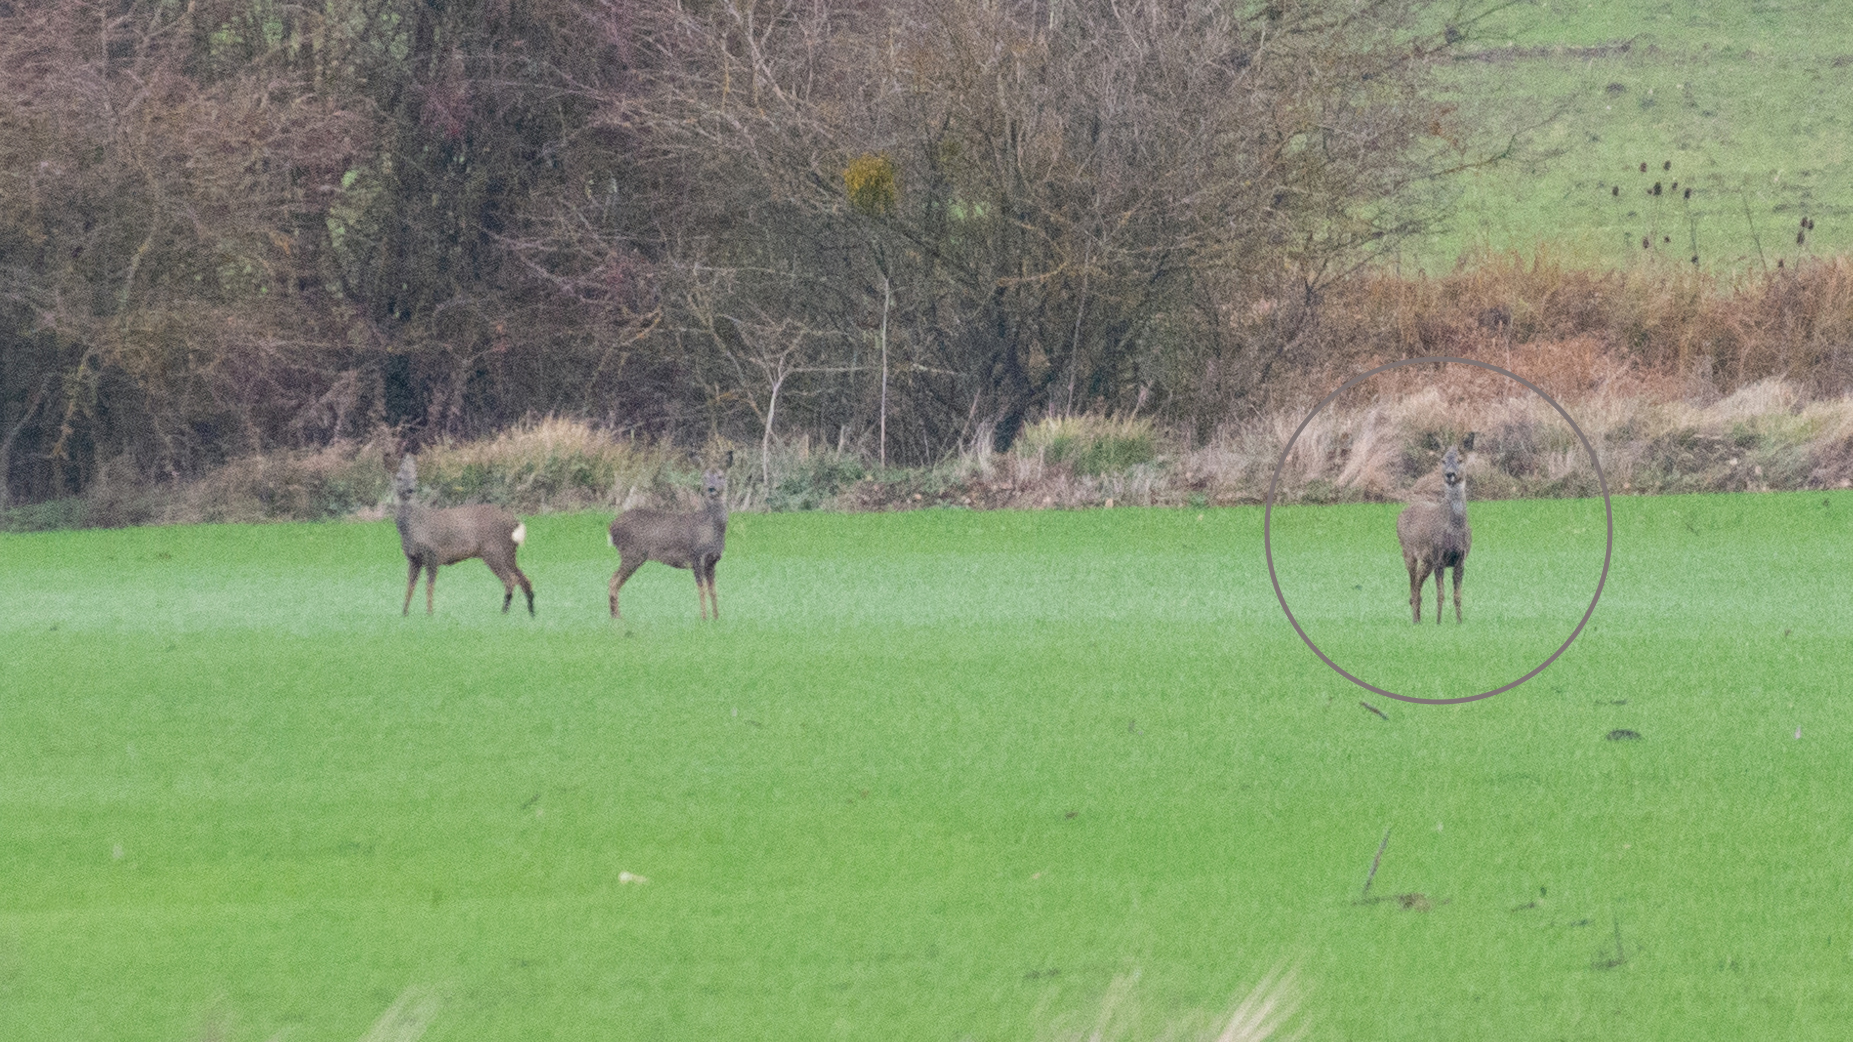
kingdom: Animalia
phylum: Chordata
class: Mammalia
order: Artiodactyla
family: Cervidae
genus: Capreolus
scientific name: Capreolus capreolus
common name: Western roe deer
